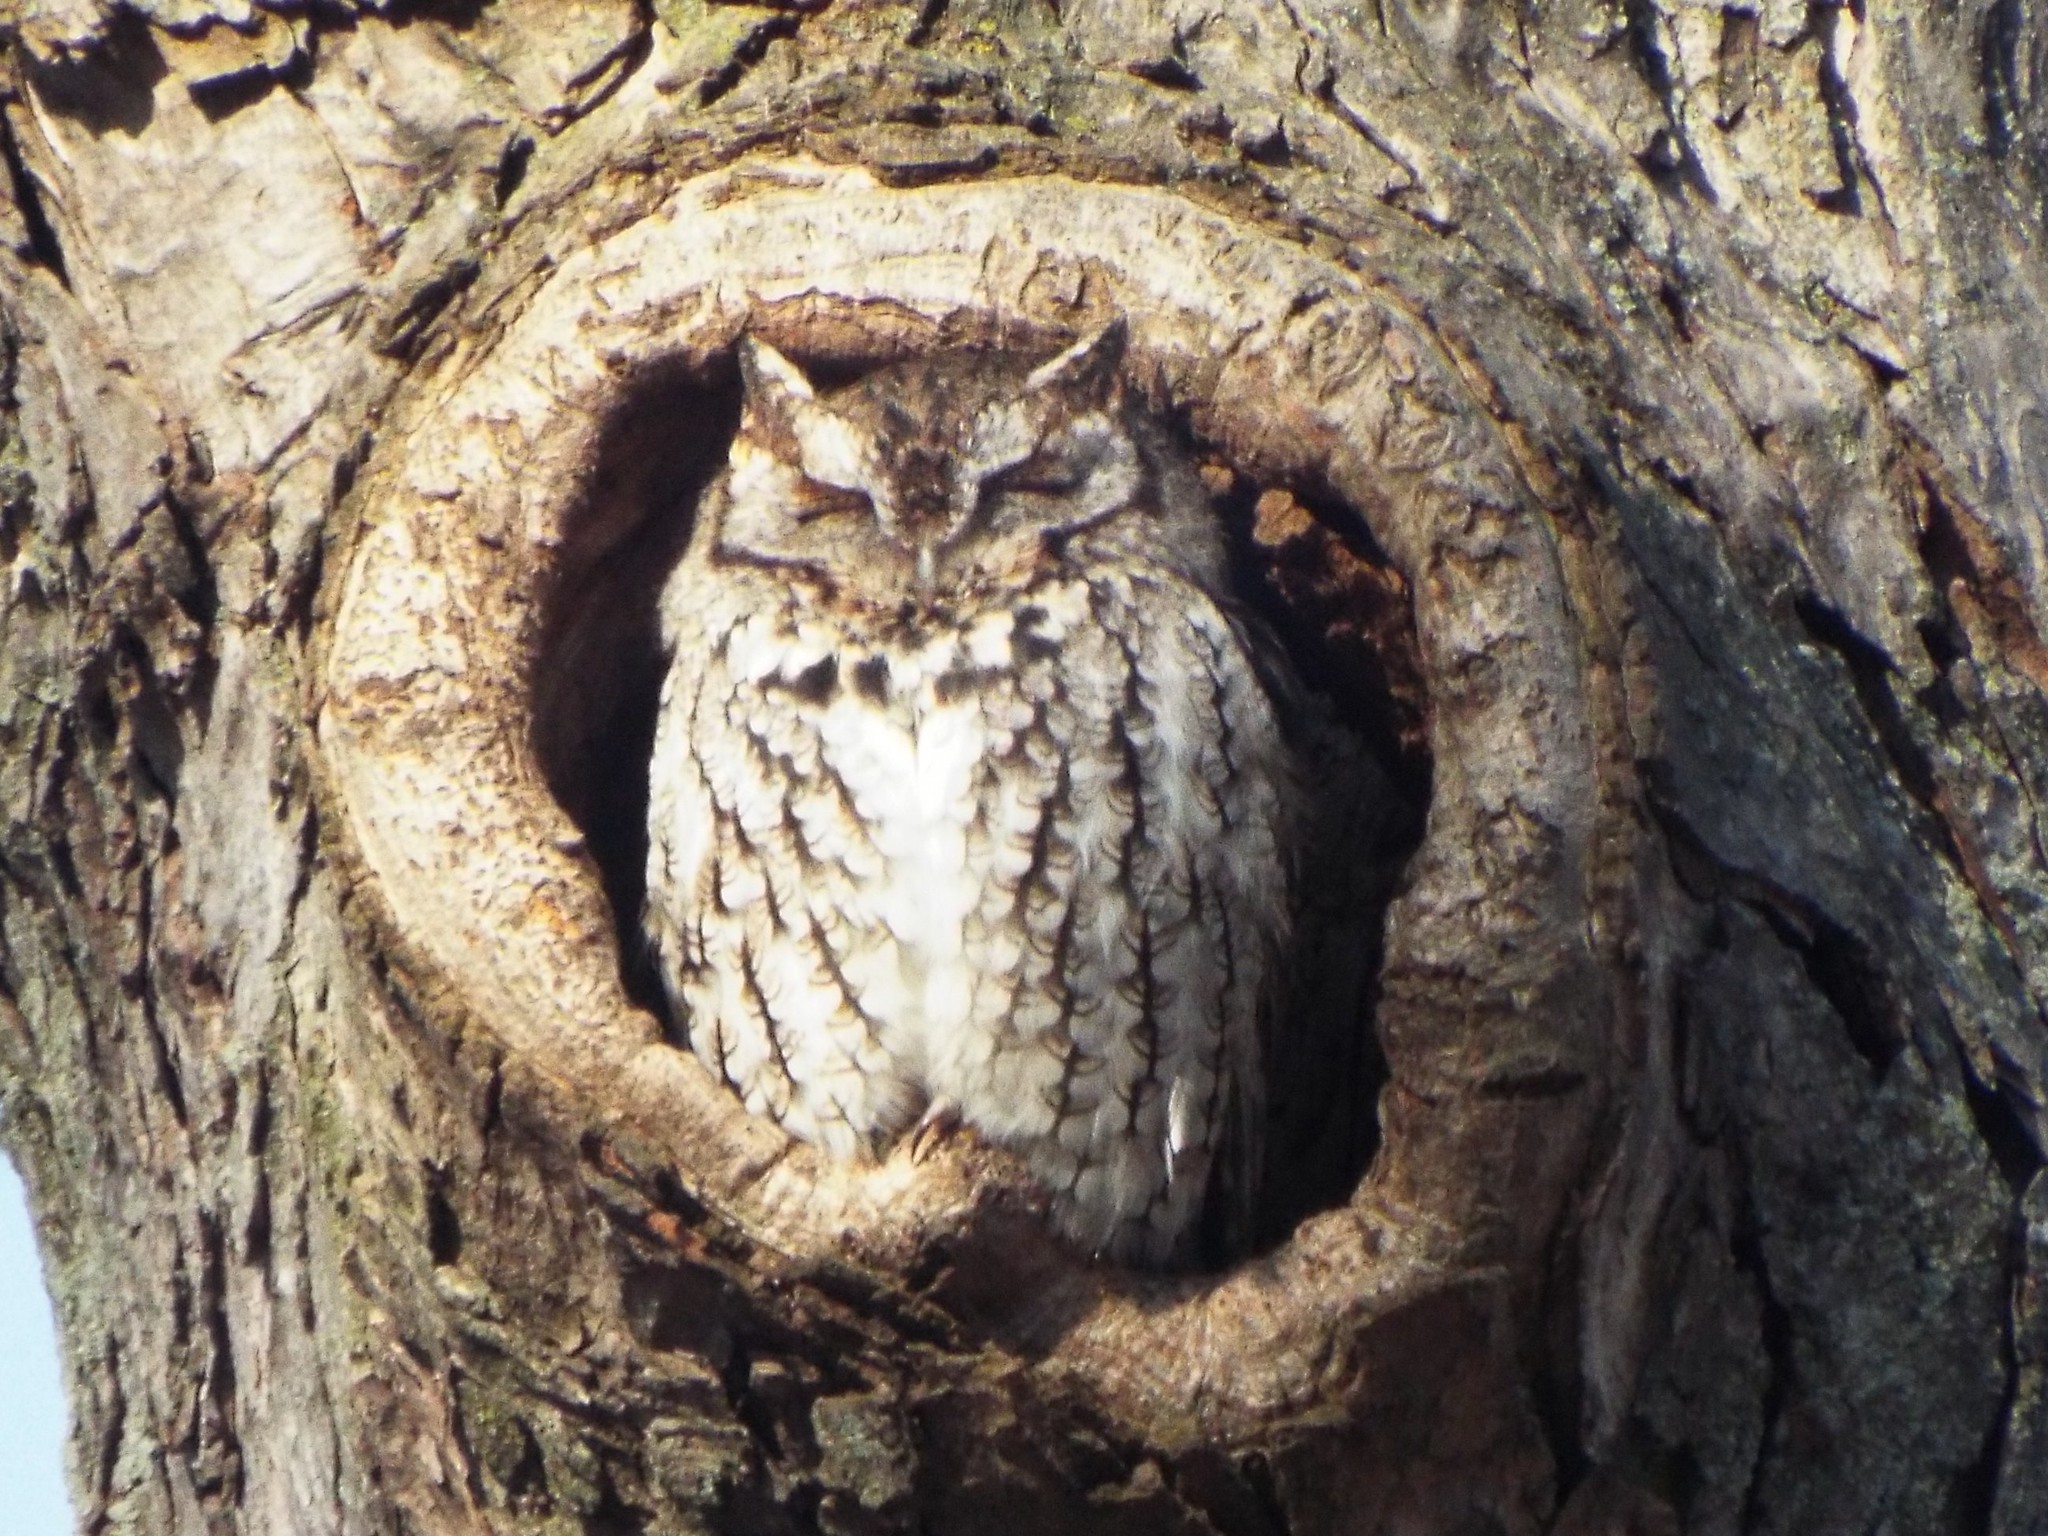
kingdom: Animalia
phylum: Chordata
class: Aves
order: Strigiformes
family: Strigidae
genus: Megascops
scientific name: Megascops asio
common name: Eastern screech-owl
